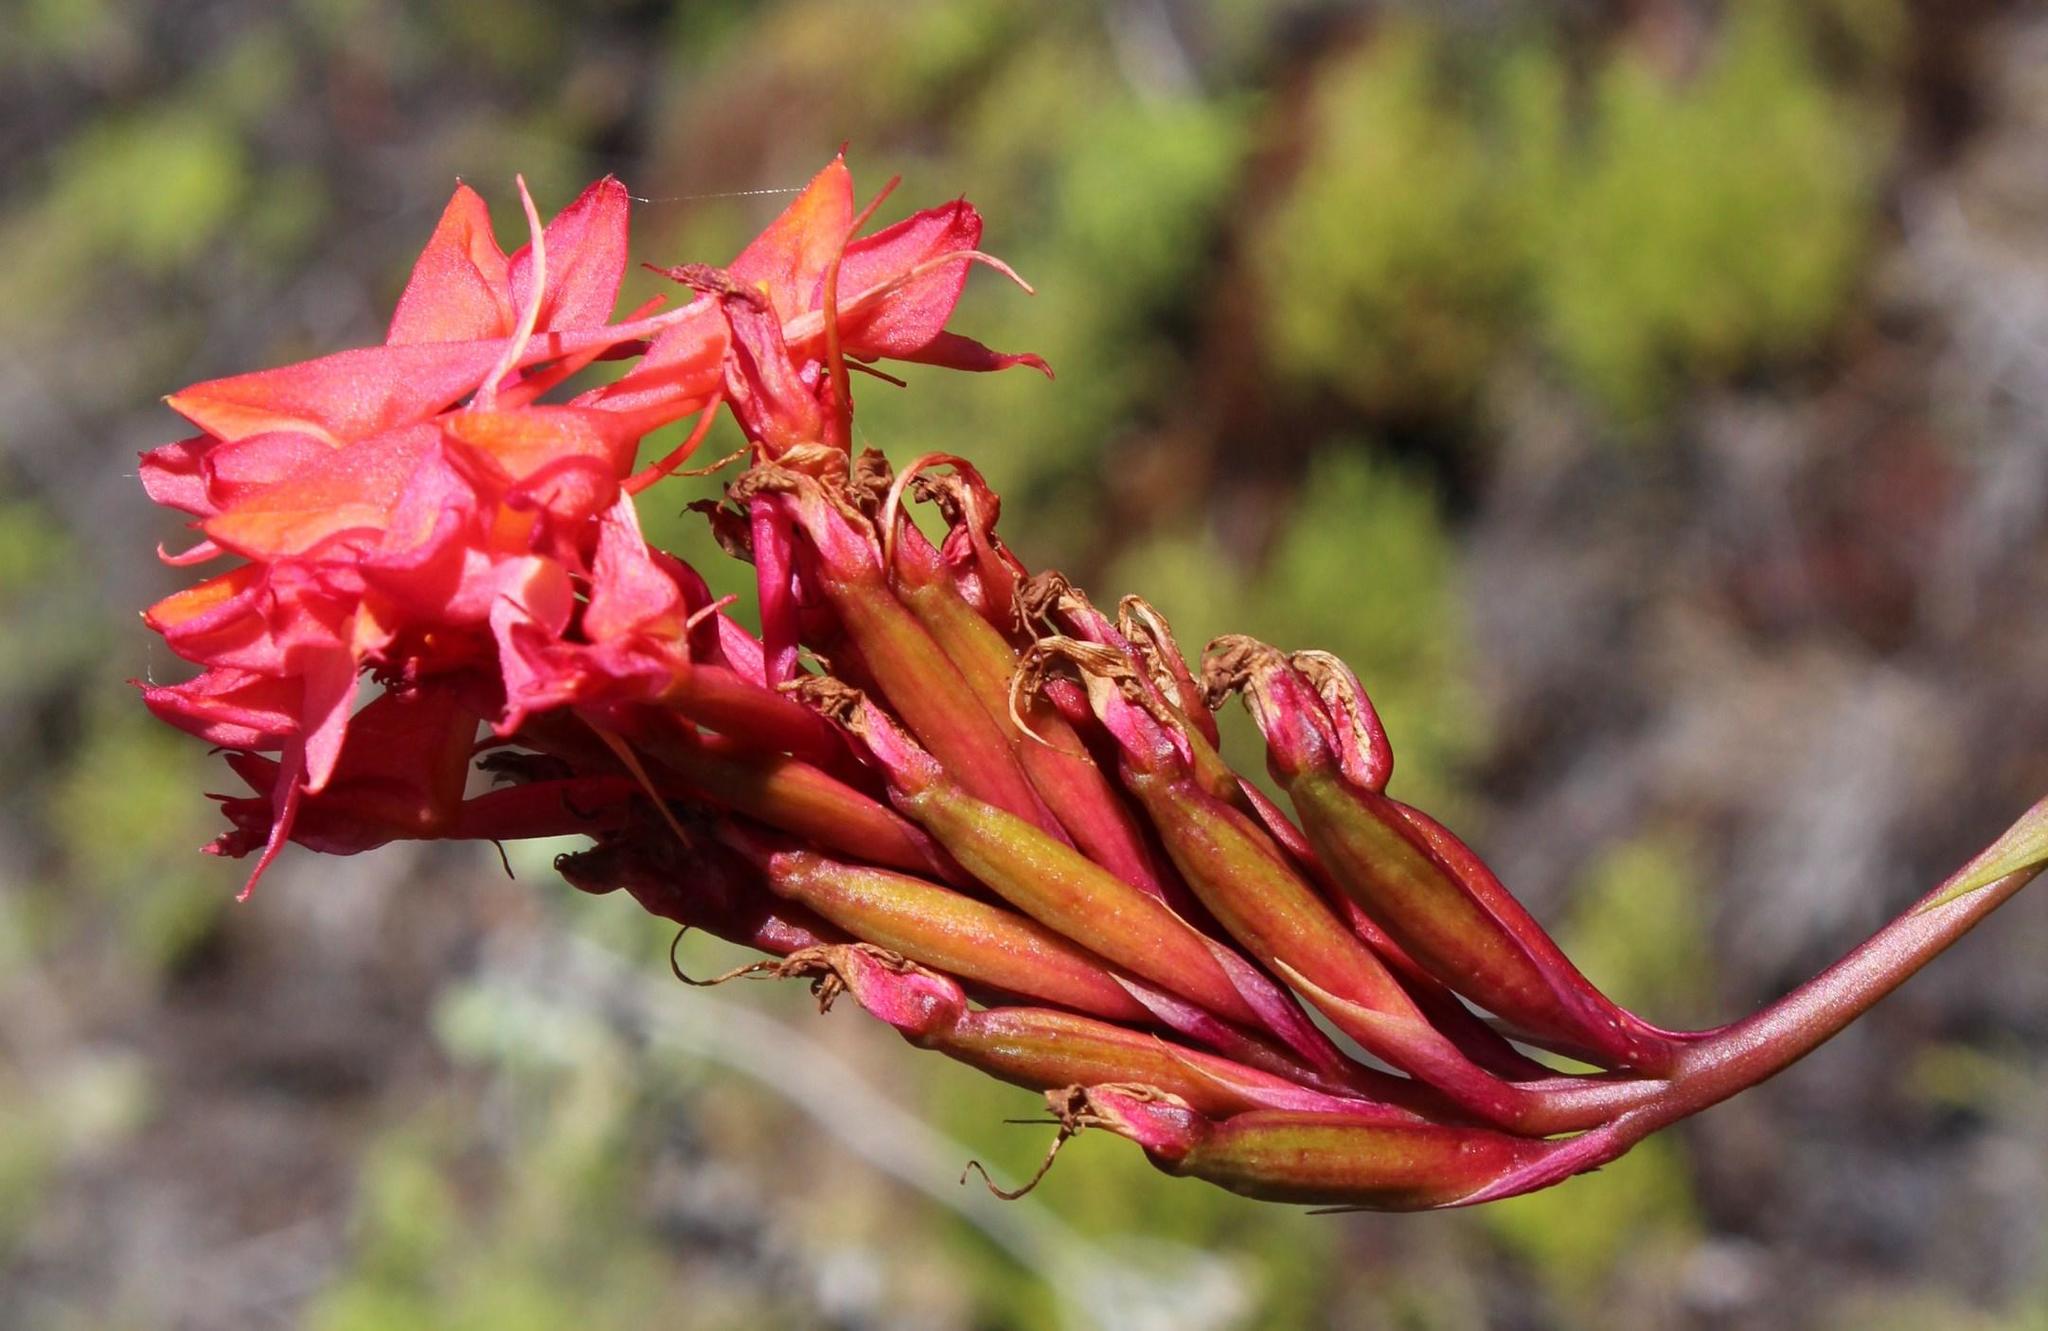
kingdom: Plantae
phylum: Tracheophyta
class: Liliopsida
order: Asparagales
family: Orchidaceae
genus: Disa
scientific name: Disa ferruginea
